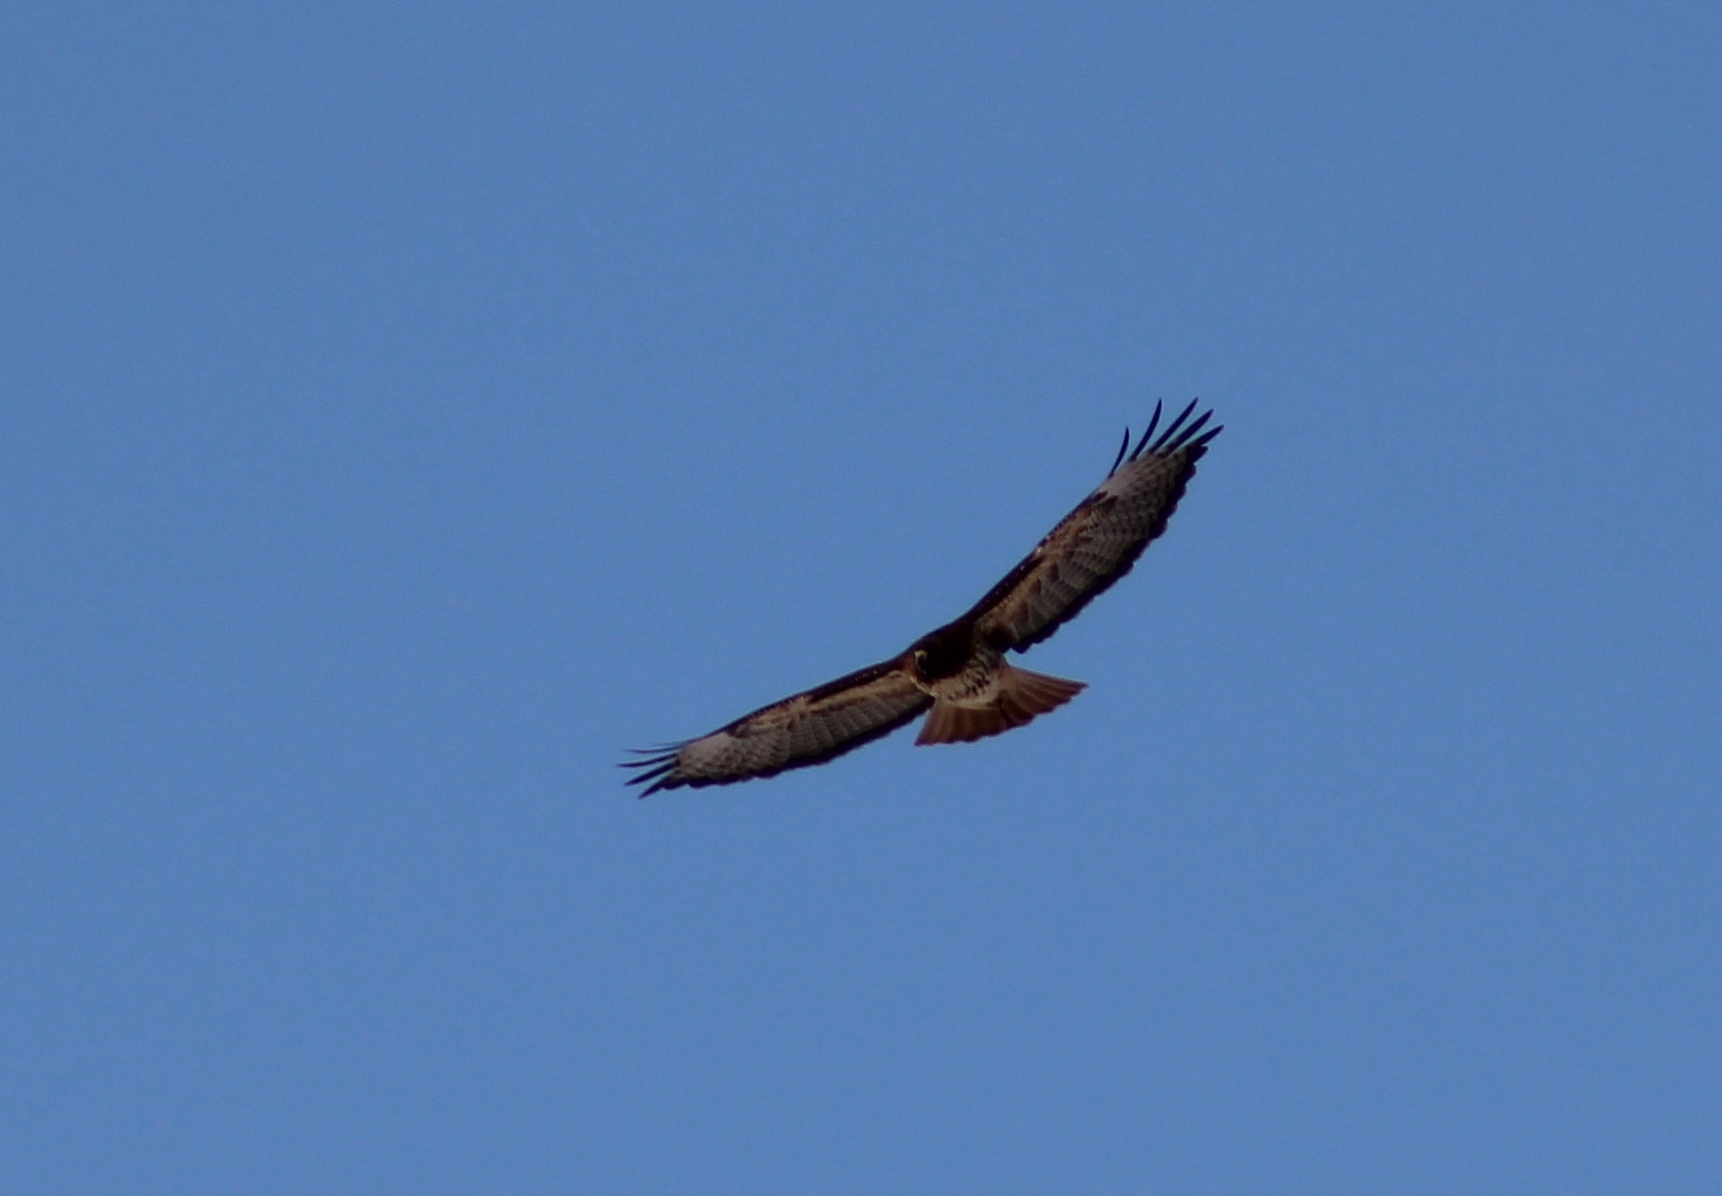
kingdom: Animalia
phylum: Chordata
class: Aves
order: Accipitriformes
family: Accipitridae
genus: Buteo
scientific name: Buteo jamaicensis
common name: Red-tailed hawk
